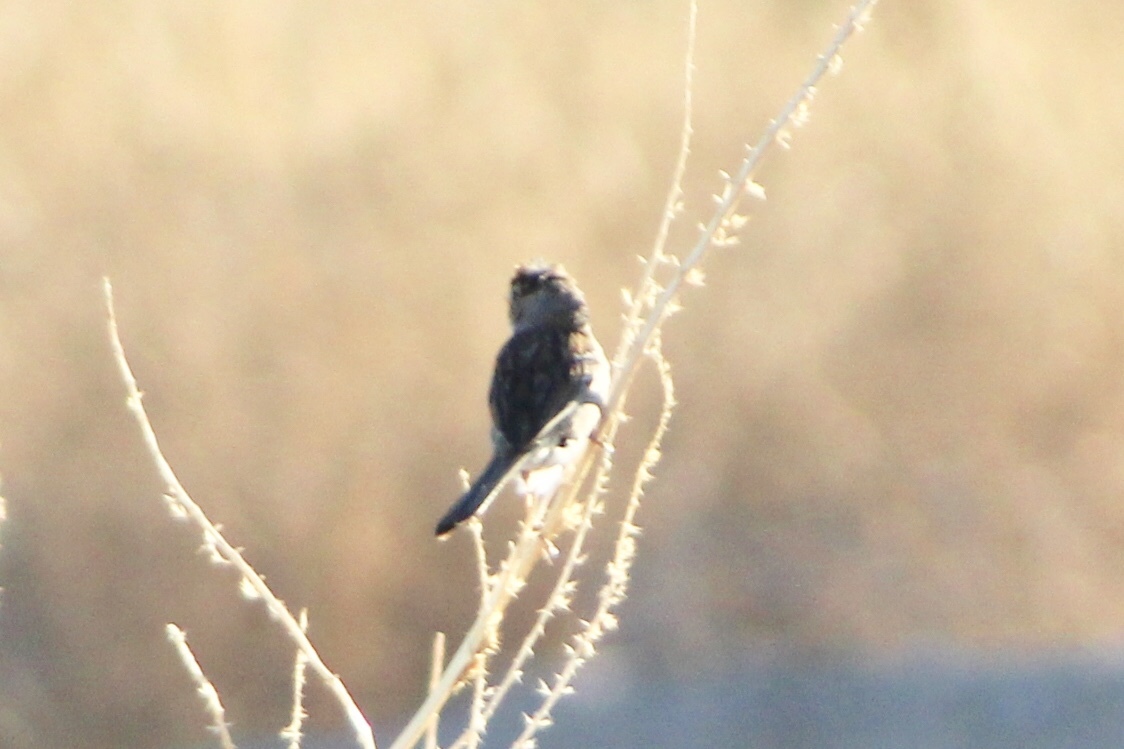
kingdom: Animalia
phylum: Chordata
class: Aves
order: Passeriformes
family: Passerellidae
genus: Zonotrichia
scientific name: Zonotrichia leucophrys
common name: White-crowned sparrow
